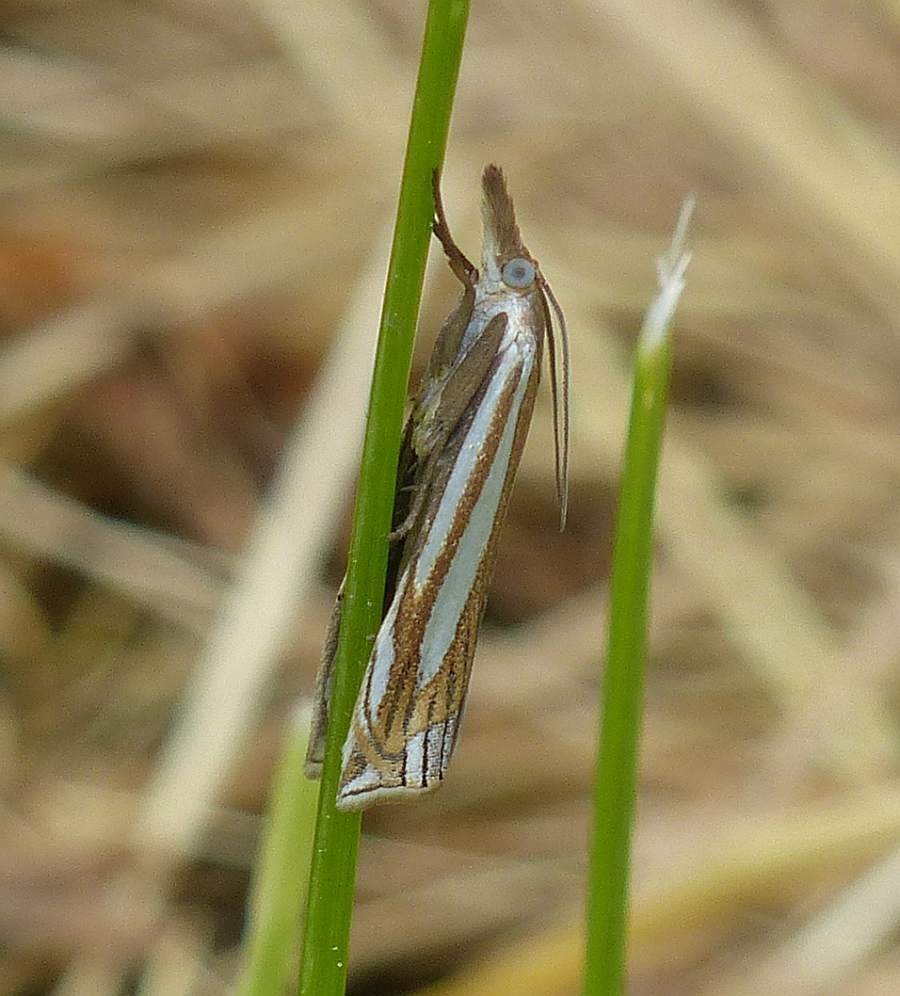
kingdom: Animalia
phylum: Arthropoda
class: Insecta
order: Lepidoptera
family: Crambidae
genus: Crambus
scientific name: Crambus laqueatellus
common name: Eastern grass-veneer
